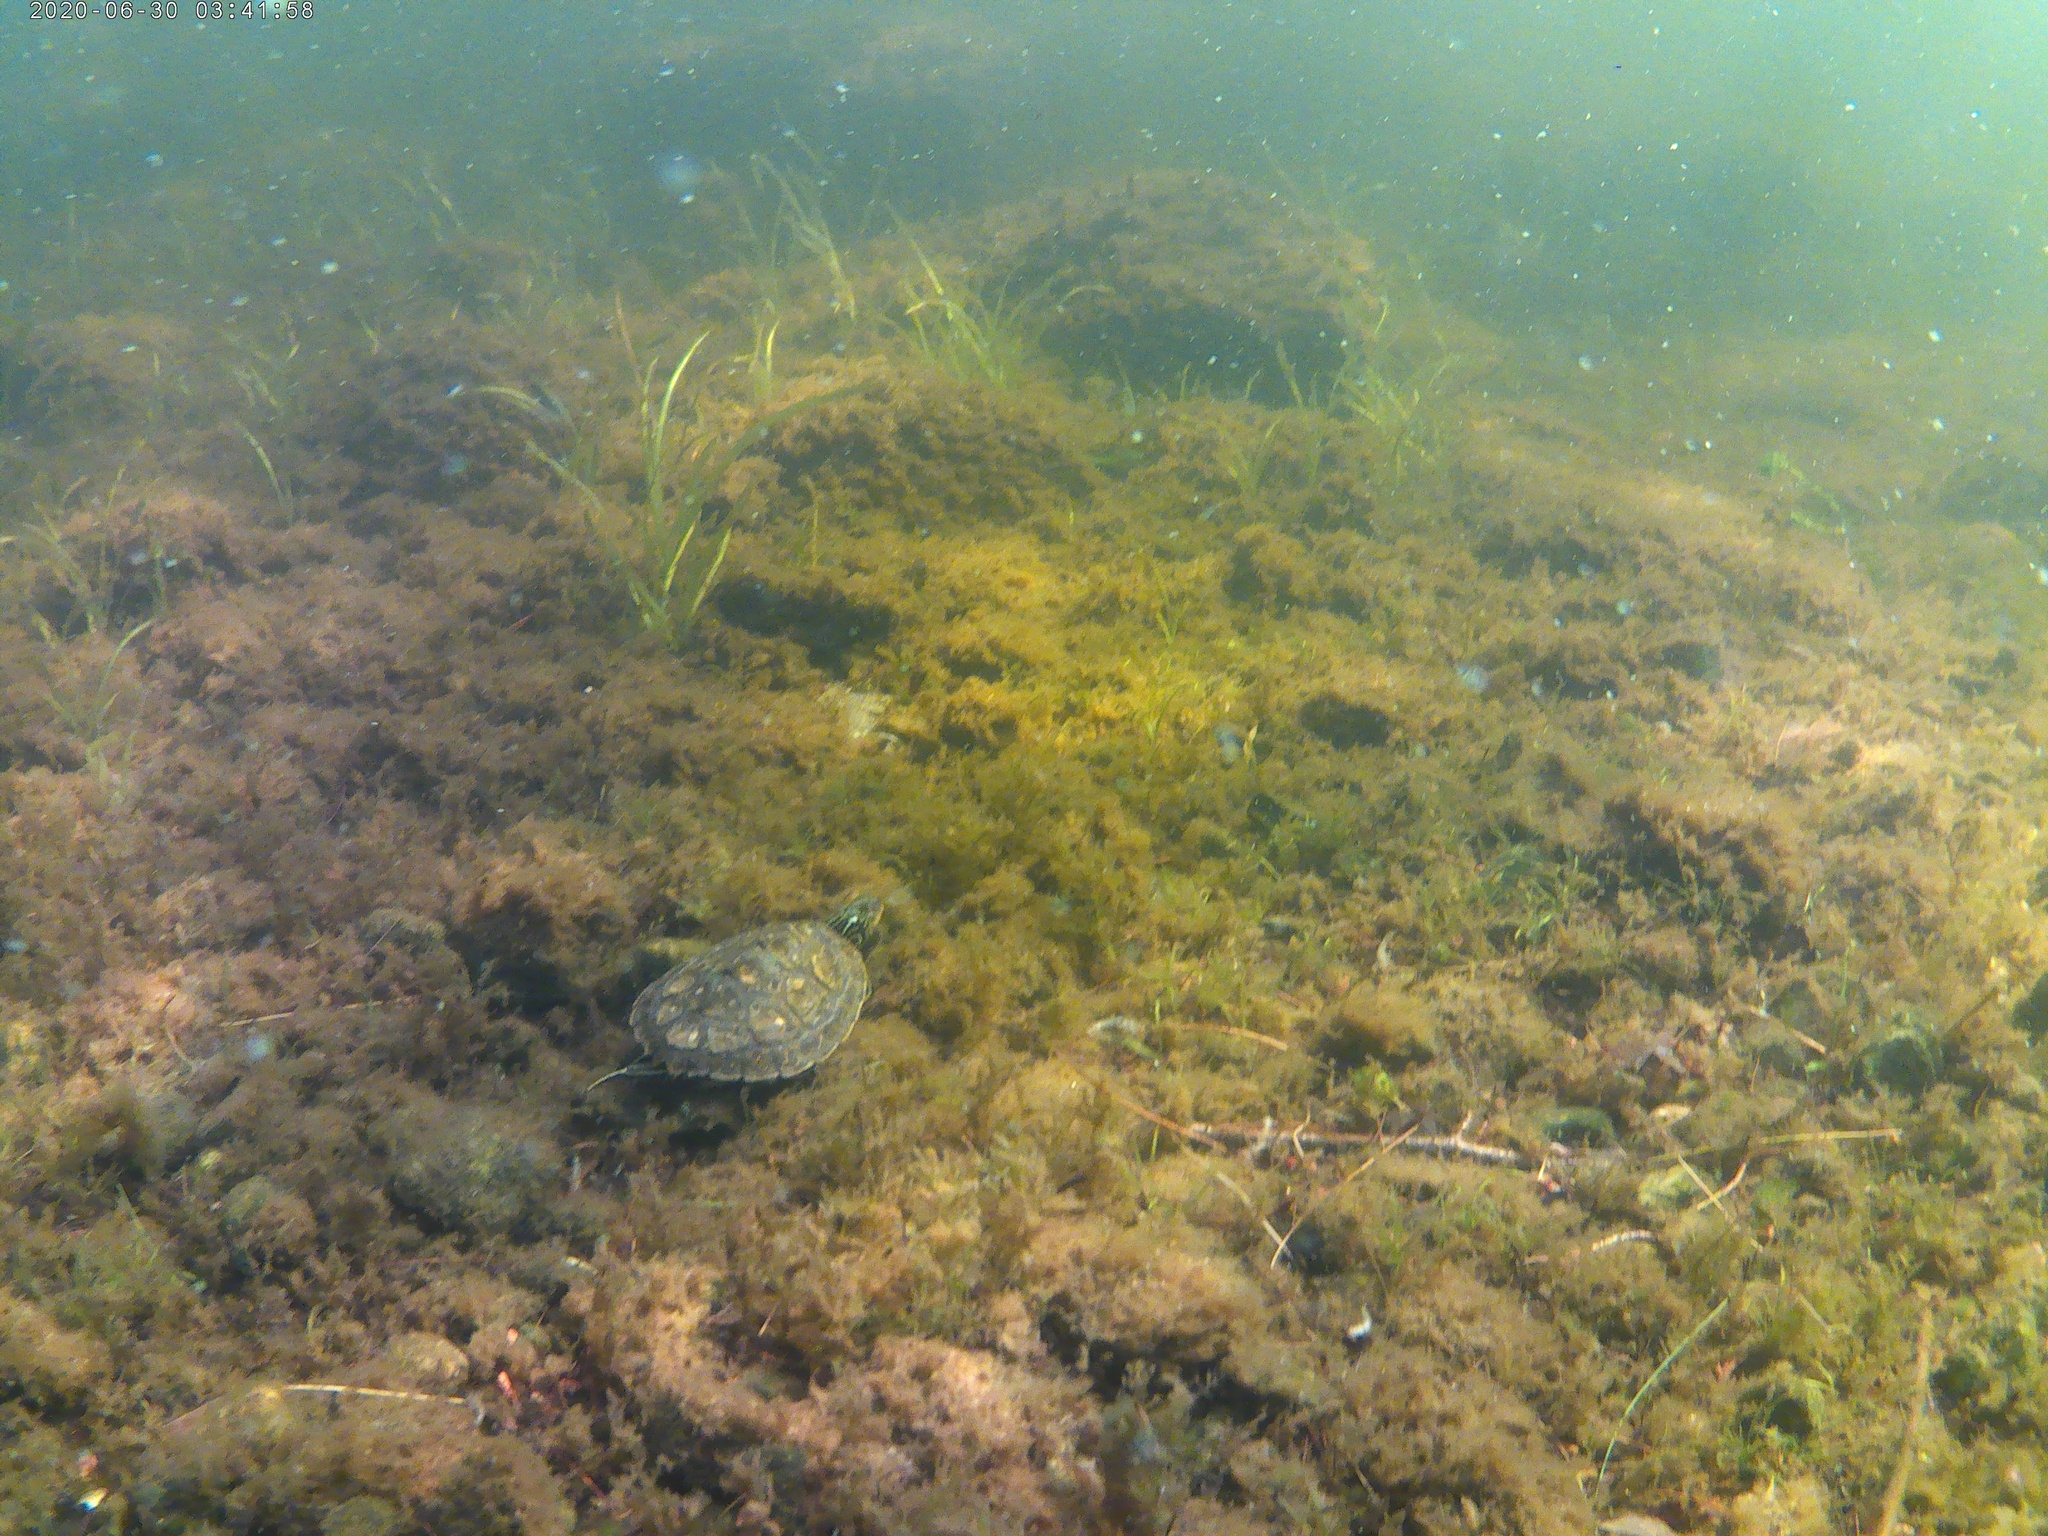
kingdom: Animalia
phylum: Chordata
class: Testudines
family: Emydidae
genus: Graptemys
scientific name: Graptemys geographica
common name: Common map turtle
